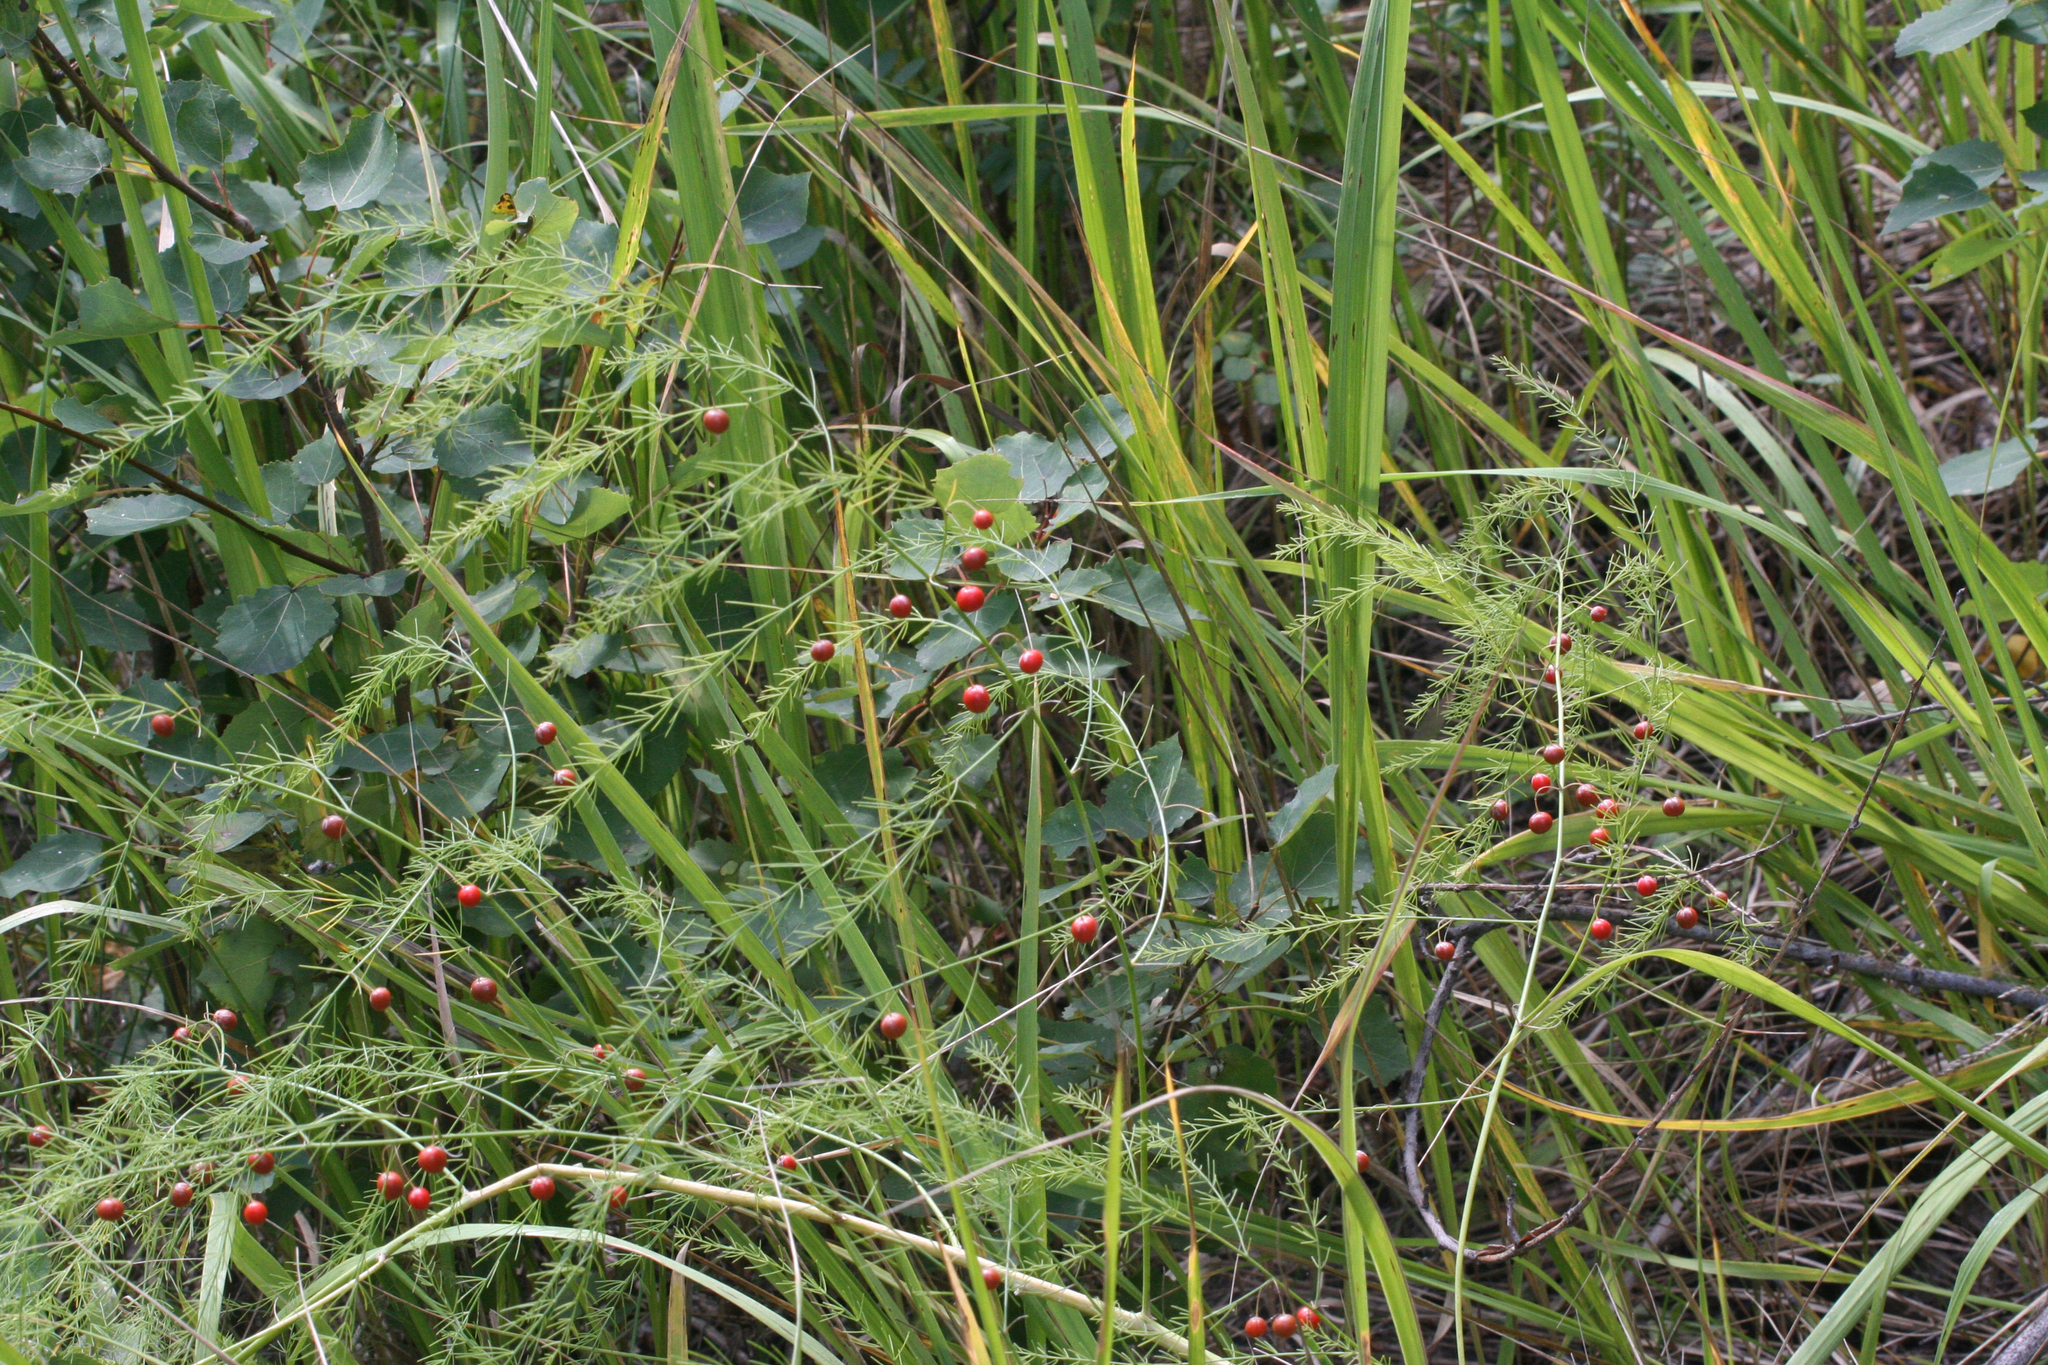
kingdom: Plantae
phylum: Tracheophyta
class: Liliopsida
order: Asparagales
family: Asparagaceae
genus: Asparagus
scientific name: Asparagus officinalis
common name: Garden asparagus
